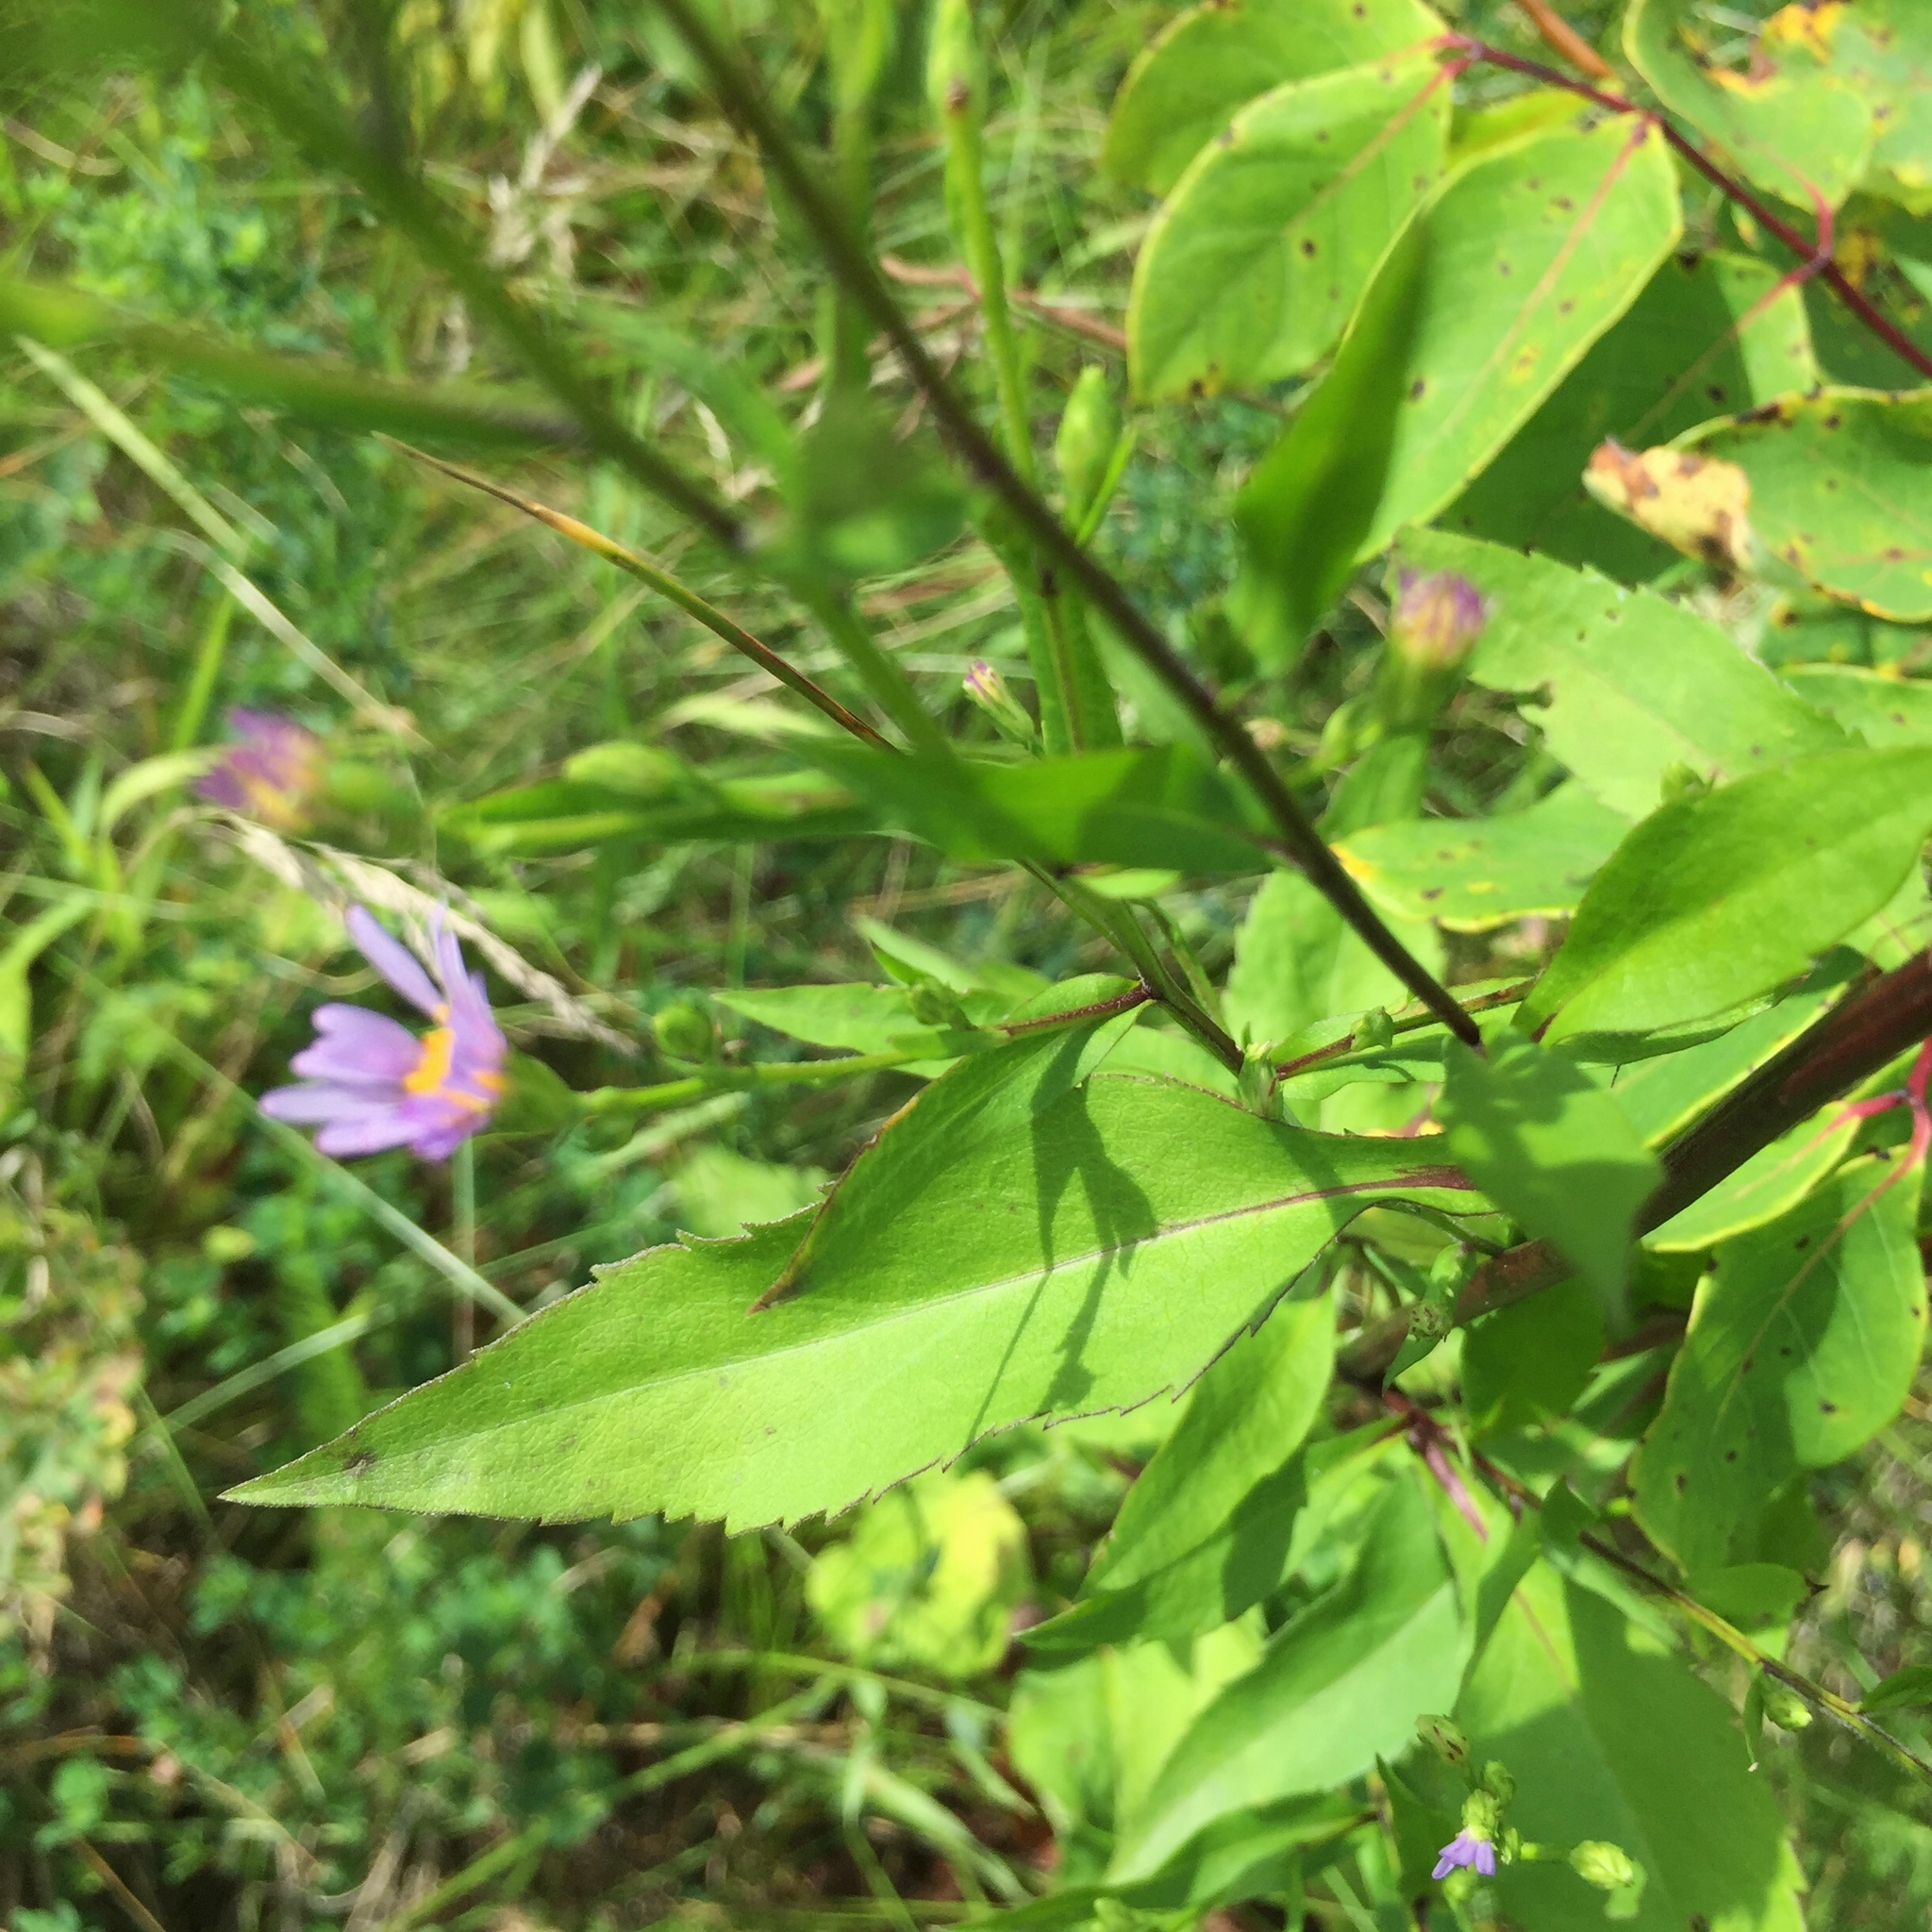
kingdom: Plantae
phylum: Tracheophyta
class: Magnoliopsida
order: Asterales
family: Asteraceae
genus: Symphyotrichum
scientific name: Symphyotrichum laeve
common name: Glaucous aster
